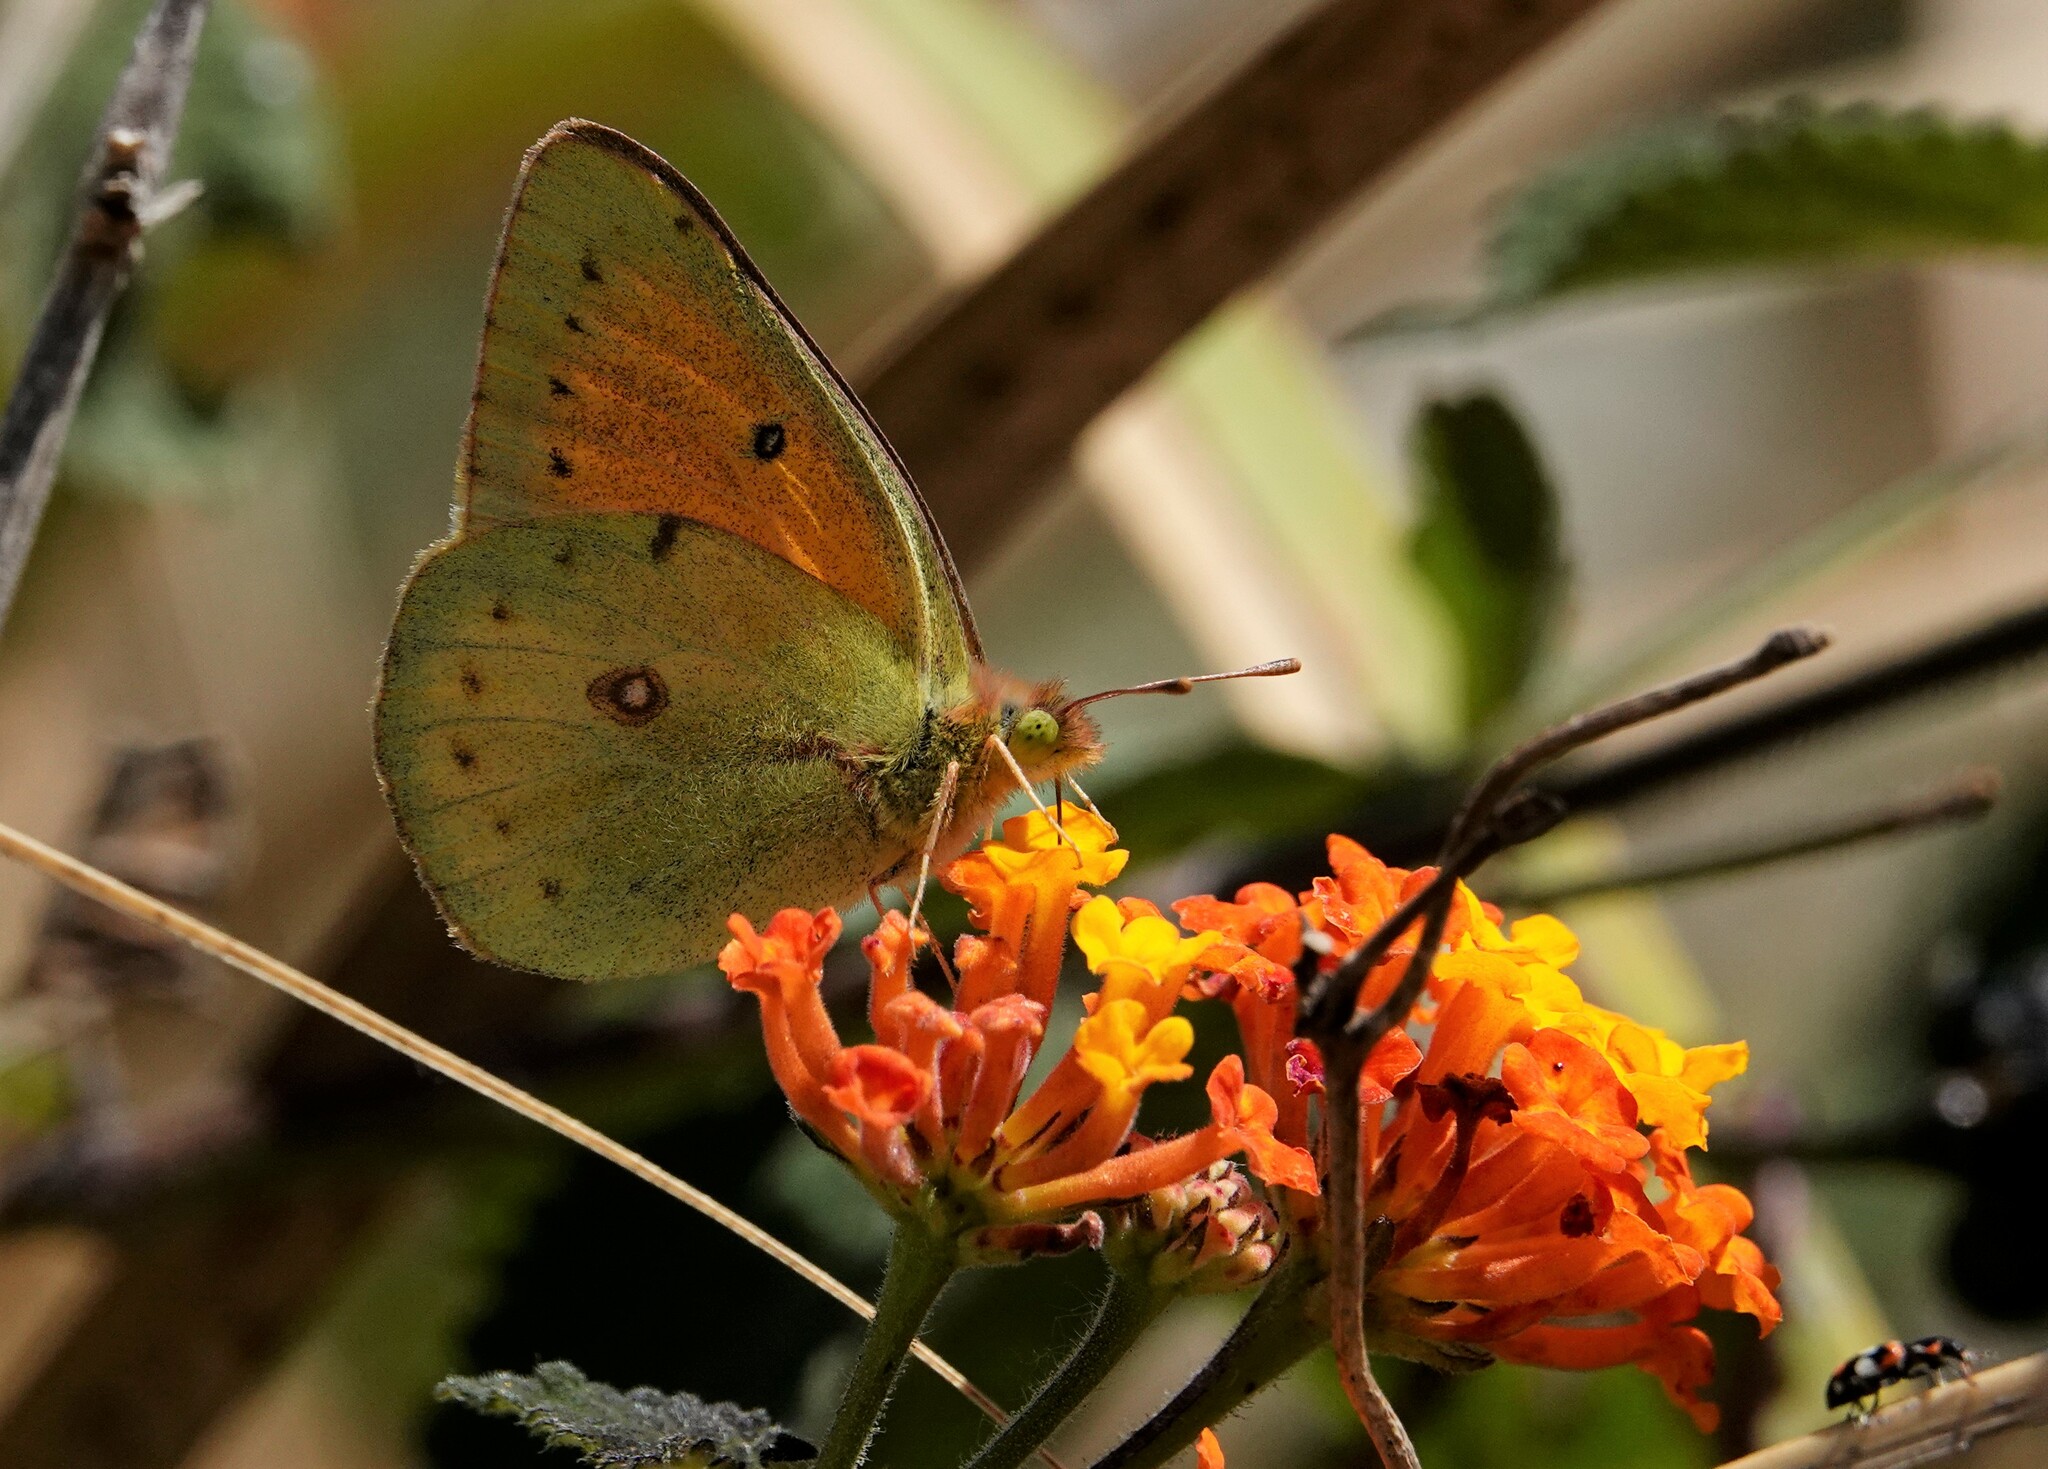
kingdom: Animalia
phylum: Arthropoda
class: Insecta
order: Lepidoptera
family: Pieridae
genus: Colias
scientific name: Colias lesbia
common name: Lesbia clouded yellow
